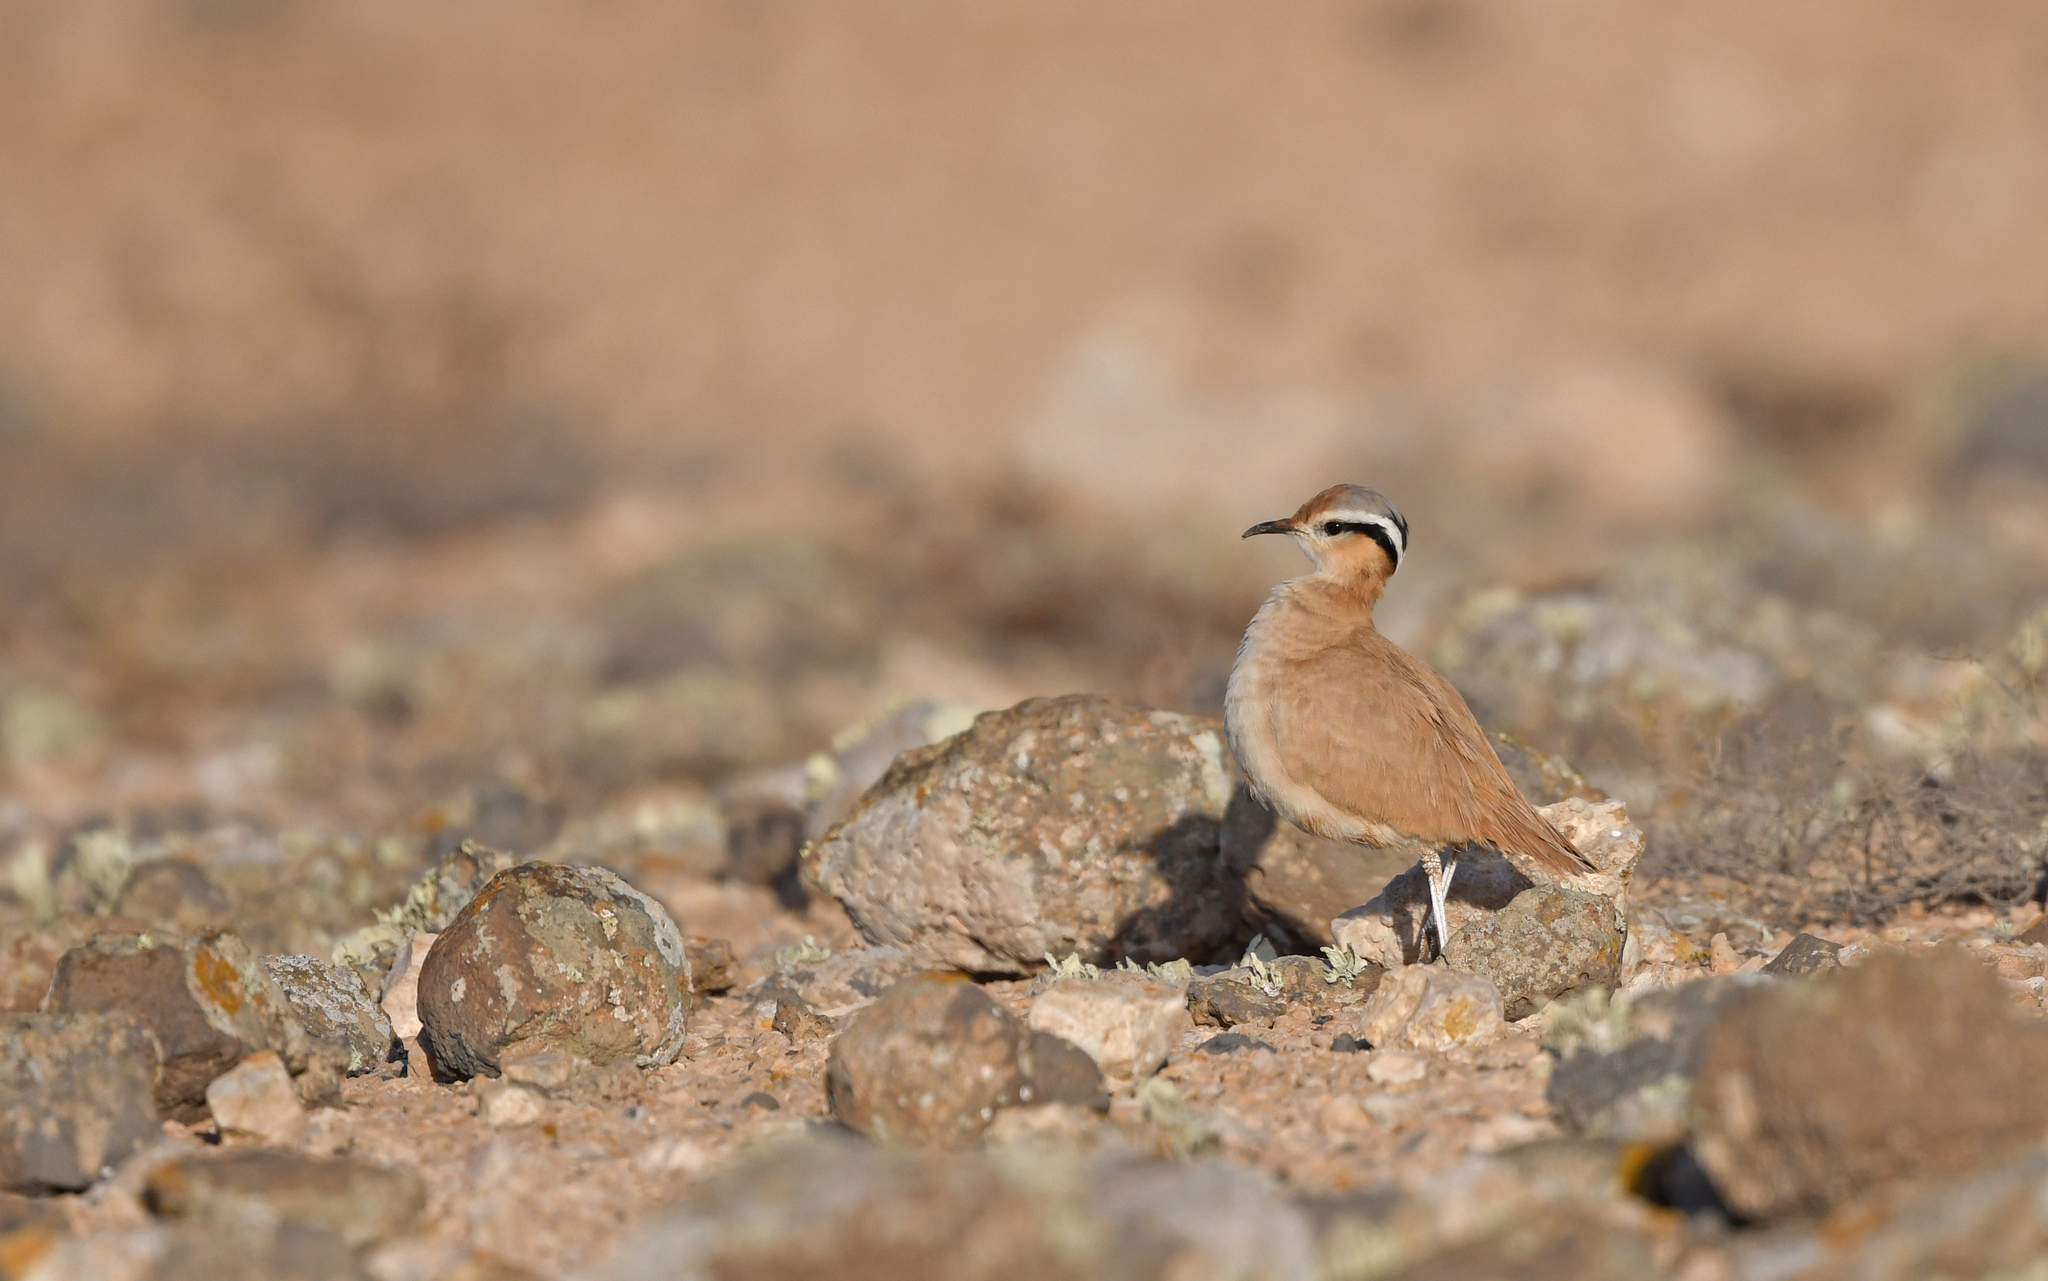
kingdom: Animalia
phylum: Chordata
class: Aves
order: Charadriiformes
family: Glareolidae
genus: Cursorius
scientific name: Cursorius cursor
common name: Cream-colored courser
